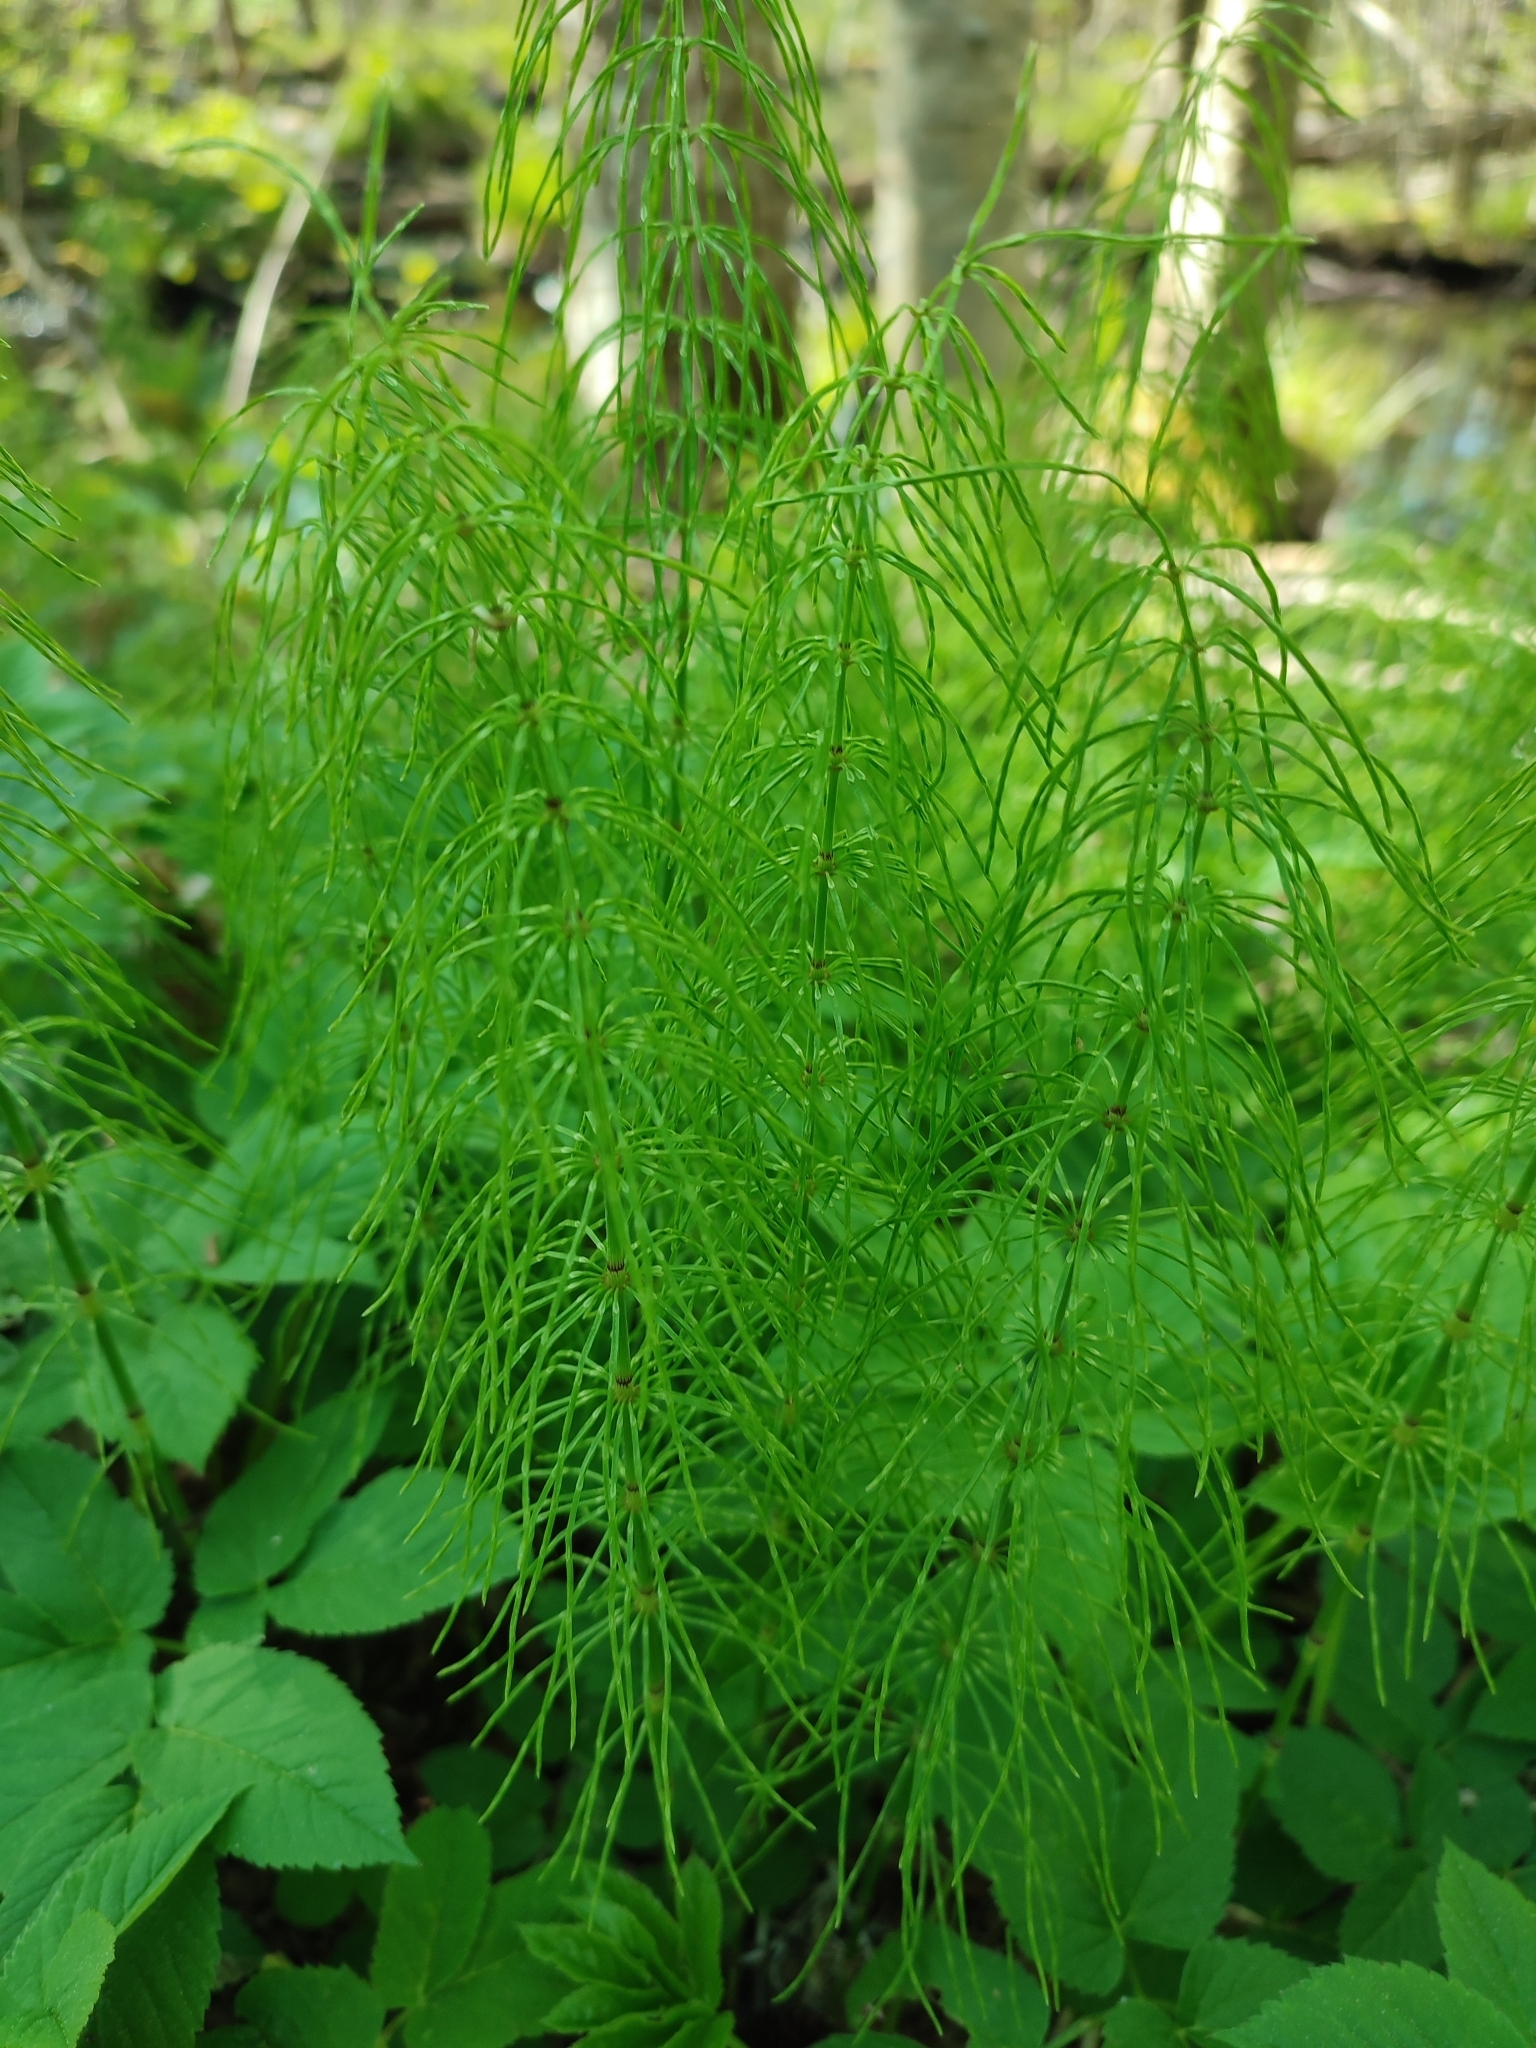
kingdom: Plantae
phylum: Tracheophyta
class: Polypodiopsida
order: Equisetales
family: Equisetaceae
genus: Equisetum
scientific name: Equisetum pratense
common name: Meadow horsetail
